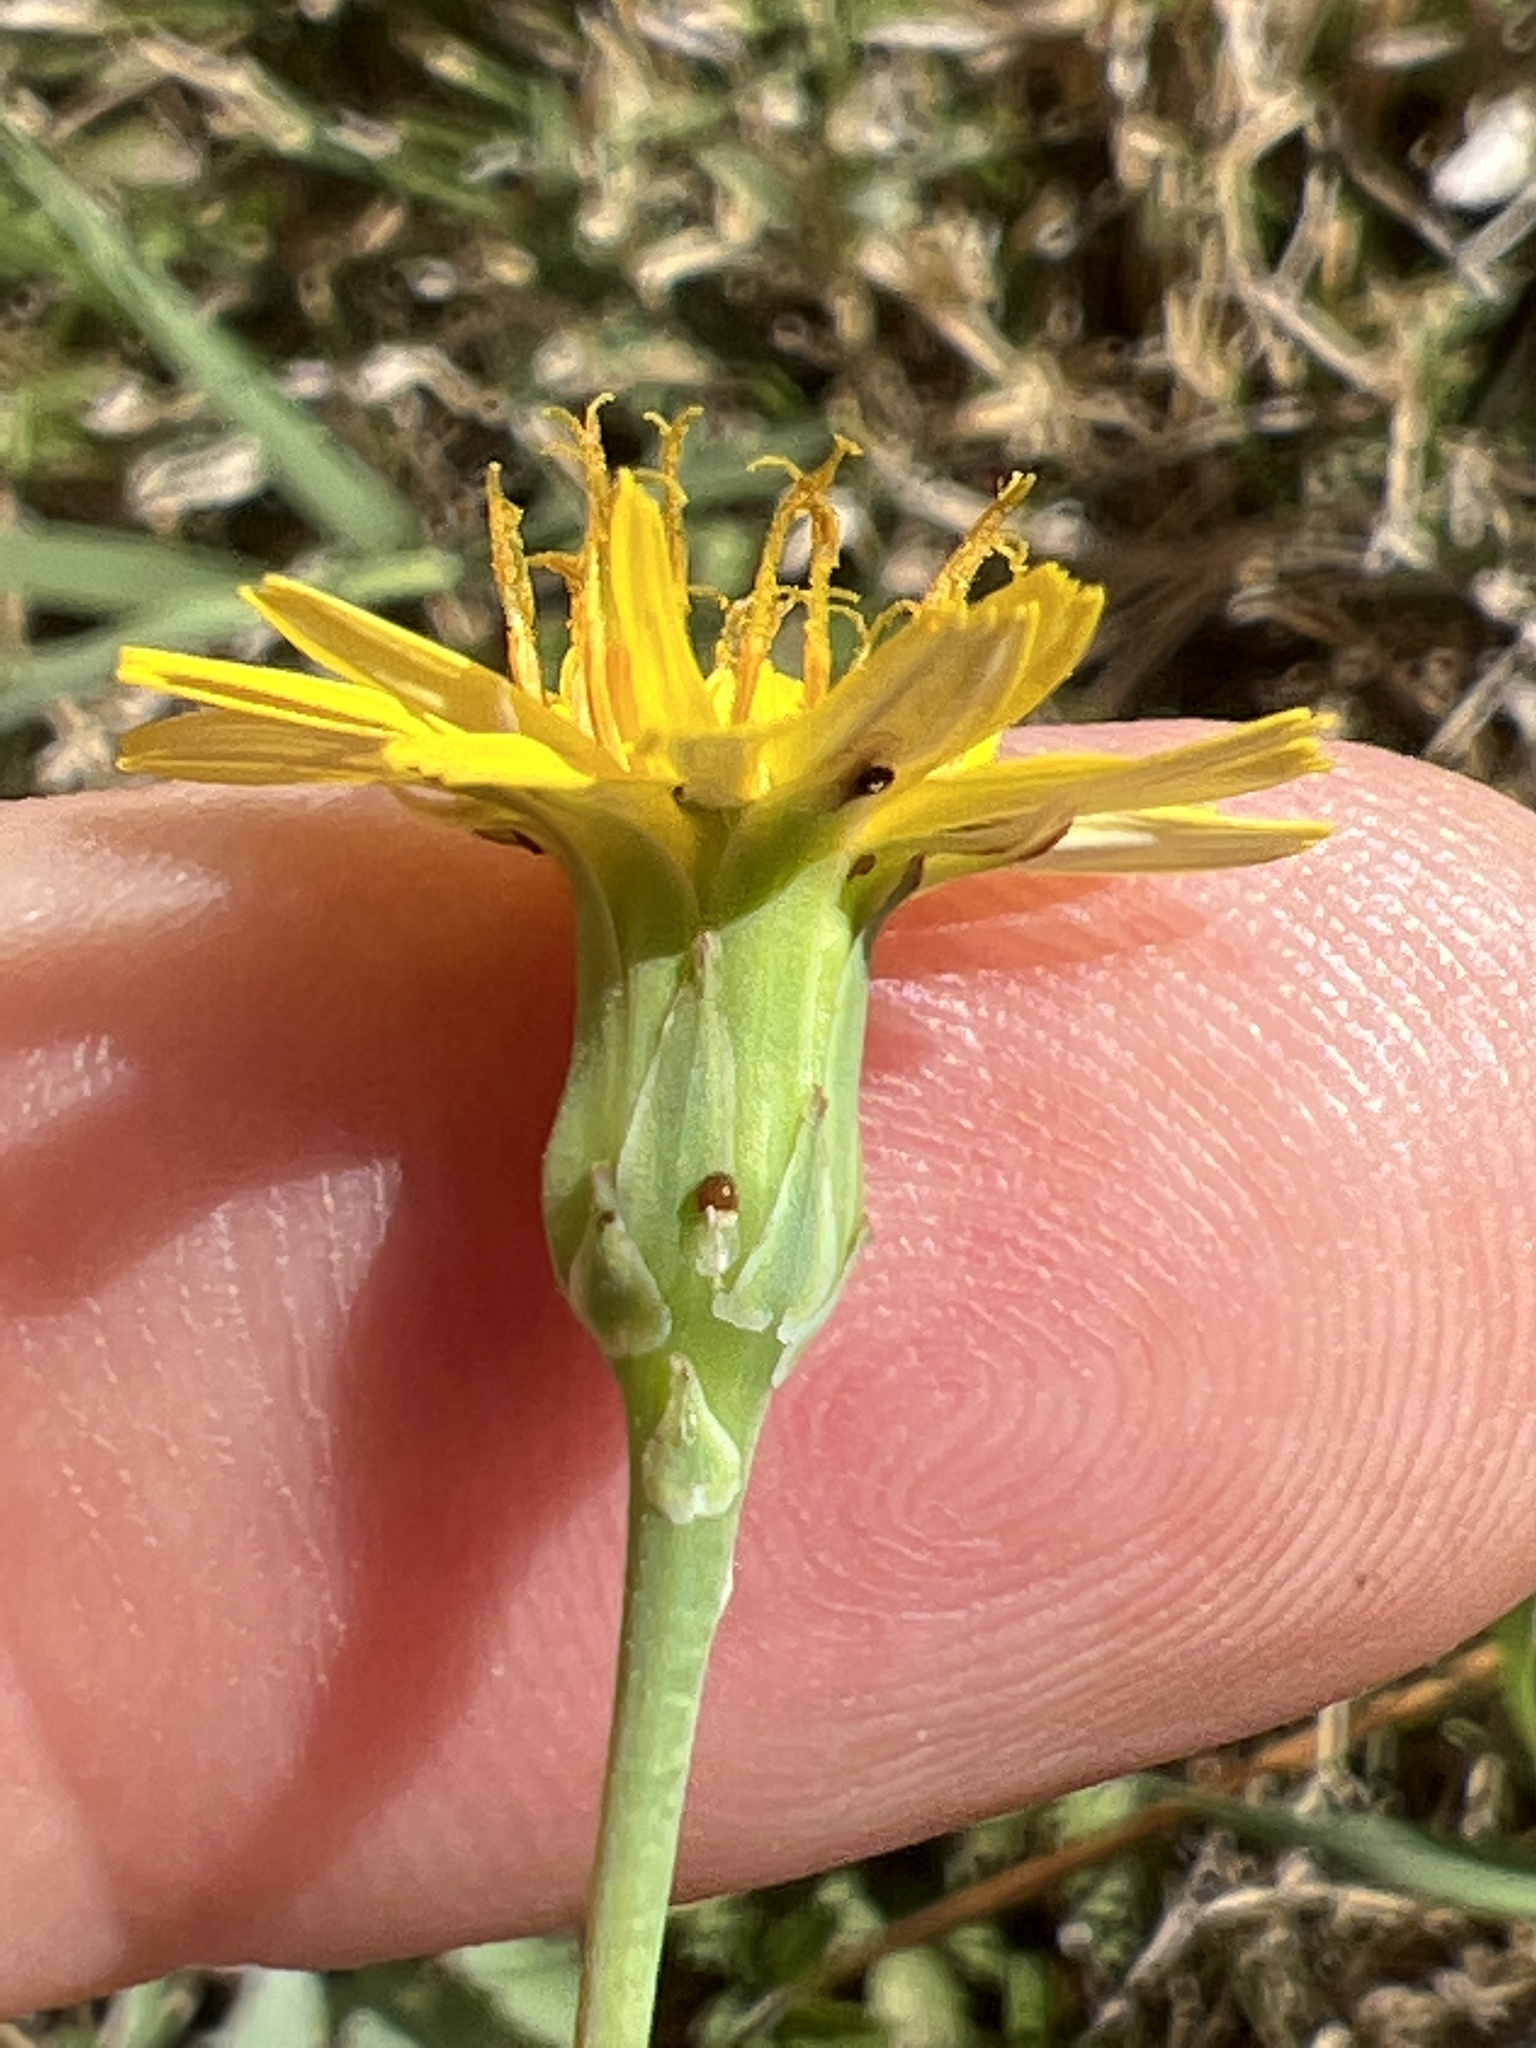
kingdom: Plantae
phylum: Tracheophyta
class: Magnoliopsida
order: Asterales
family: Asteraceae
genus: Reichardia
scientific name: Reichardia picroides
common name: Common brighteyes
